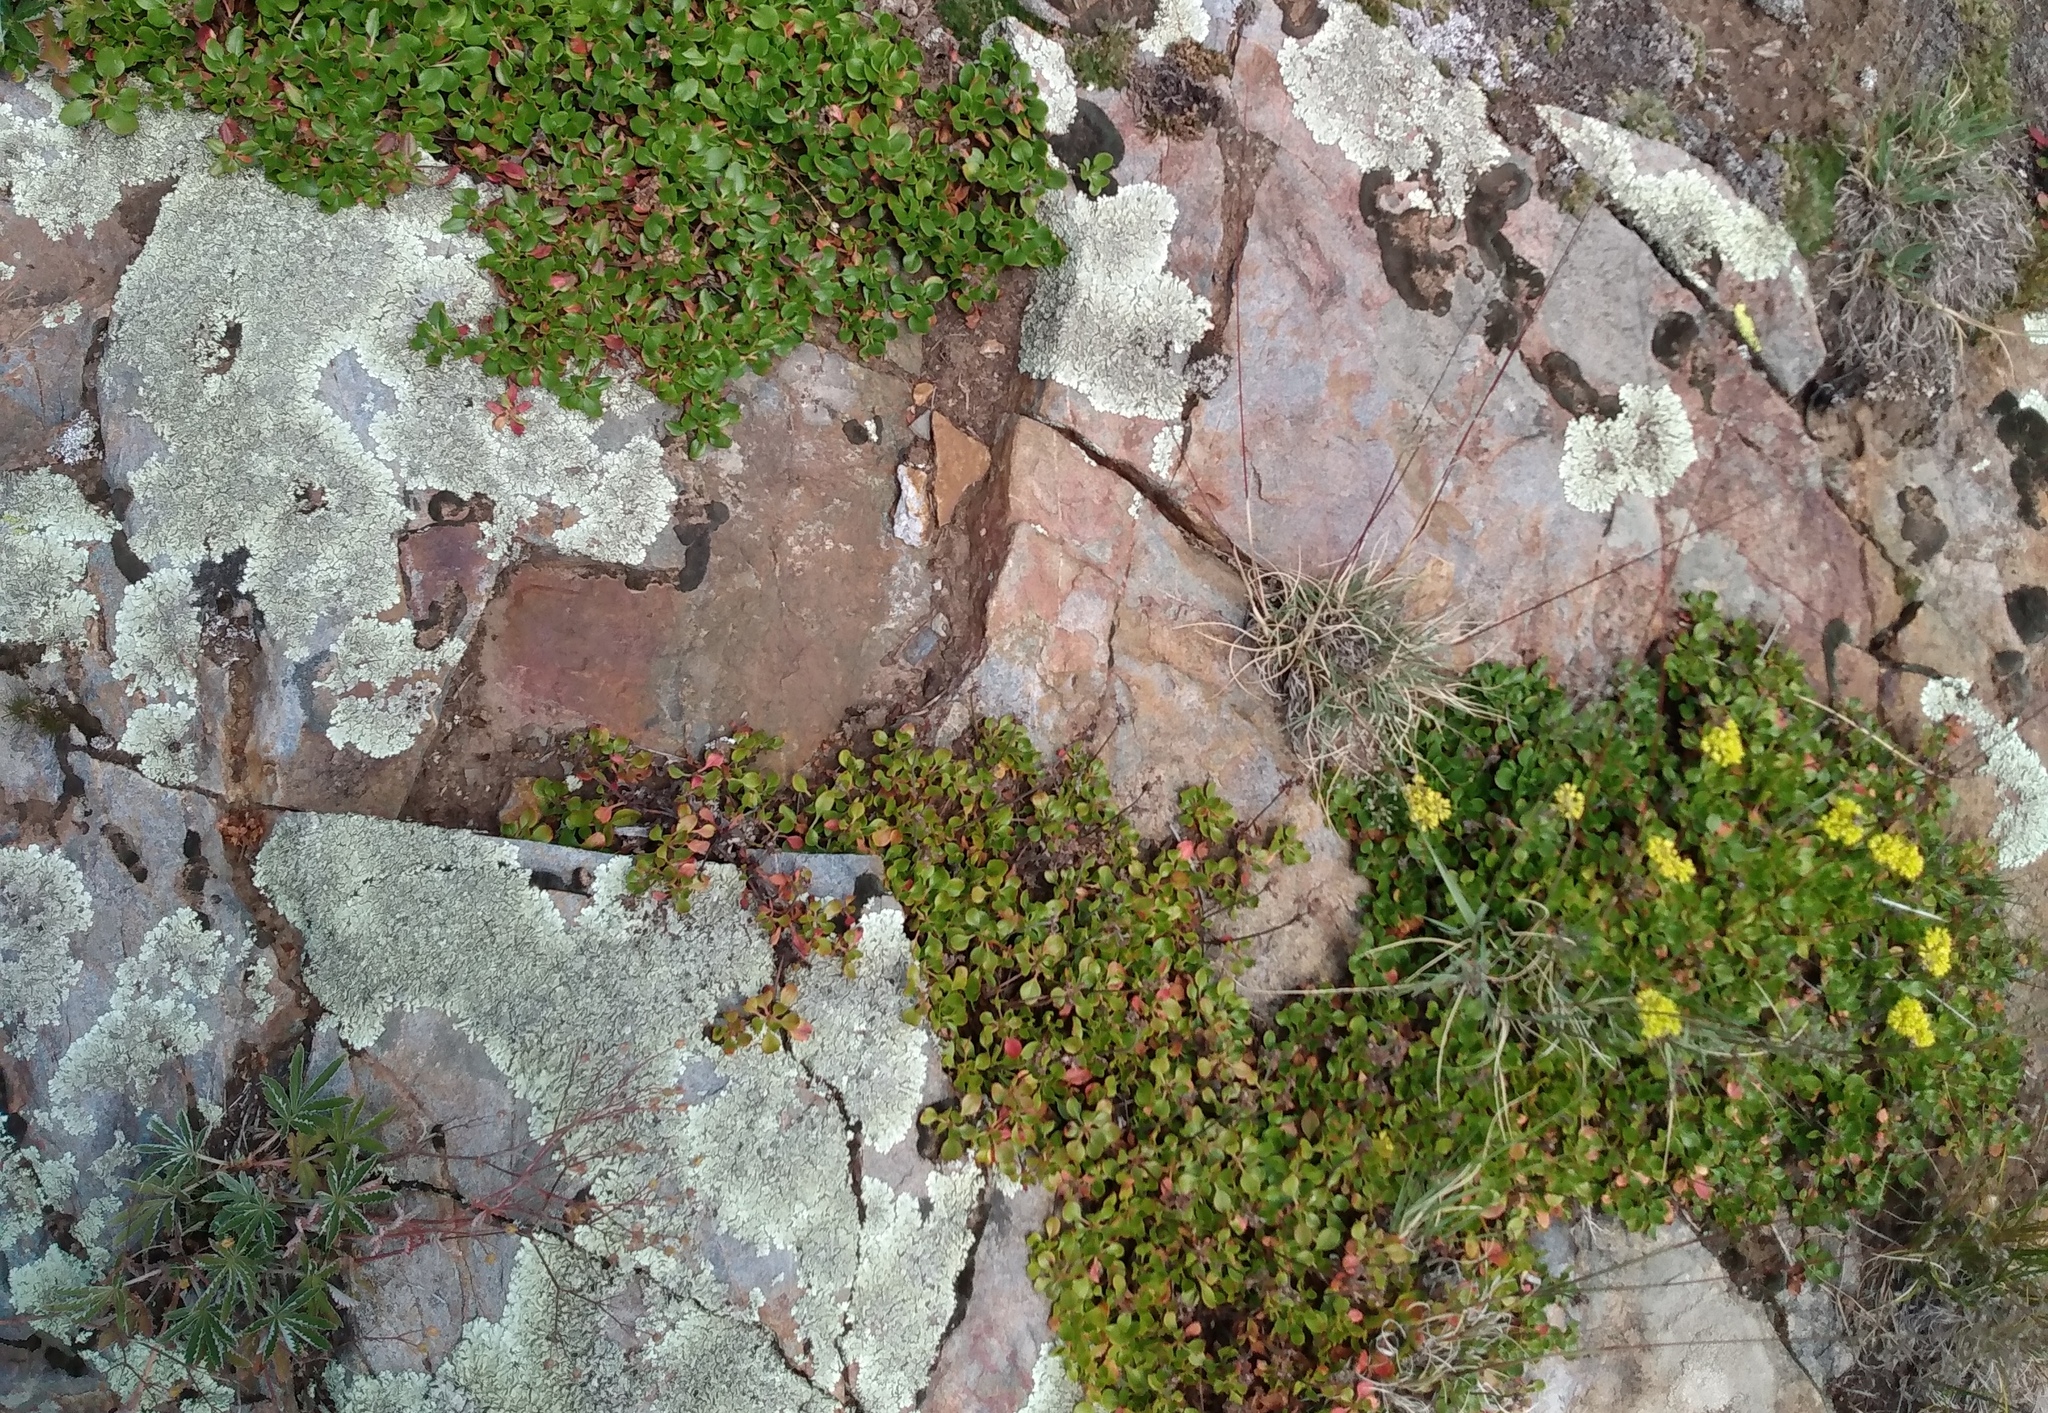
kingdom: Plantae
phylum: Tracheophyta
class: Magnoliopsida
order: Caryophyllales
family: Polygonaceae
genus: Eriogonum
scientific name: Eriogonum umbellatum
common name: Sulfur-buckwheat
